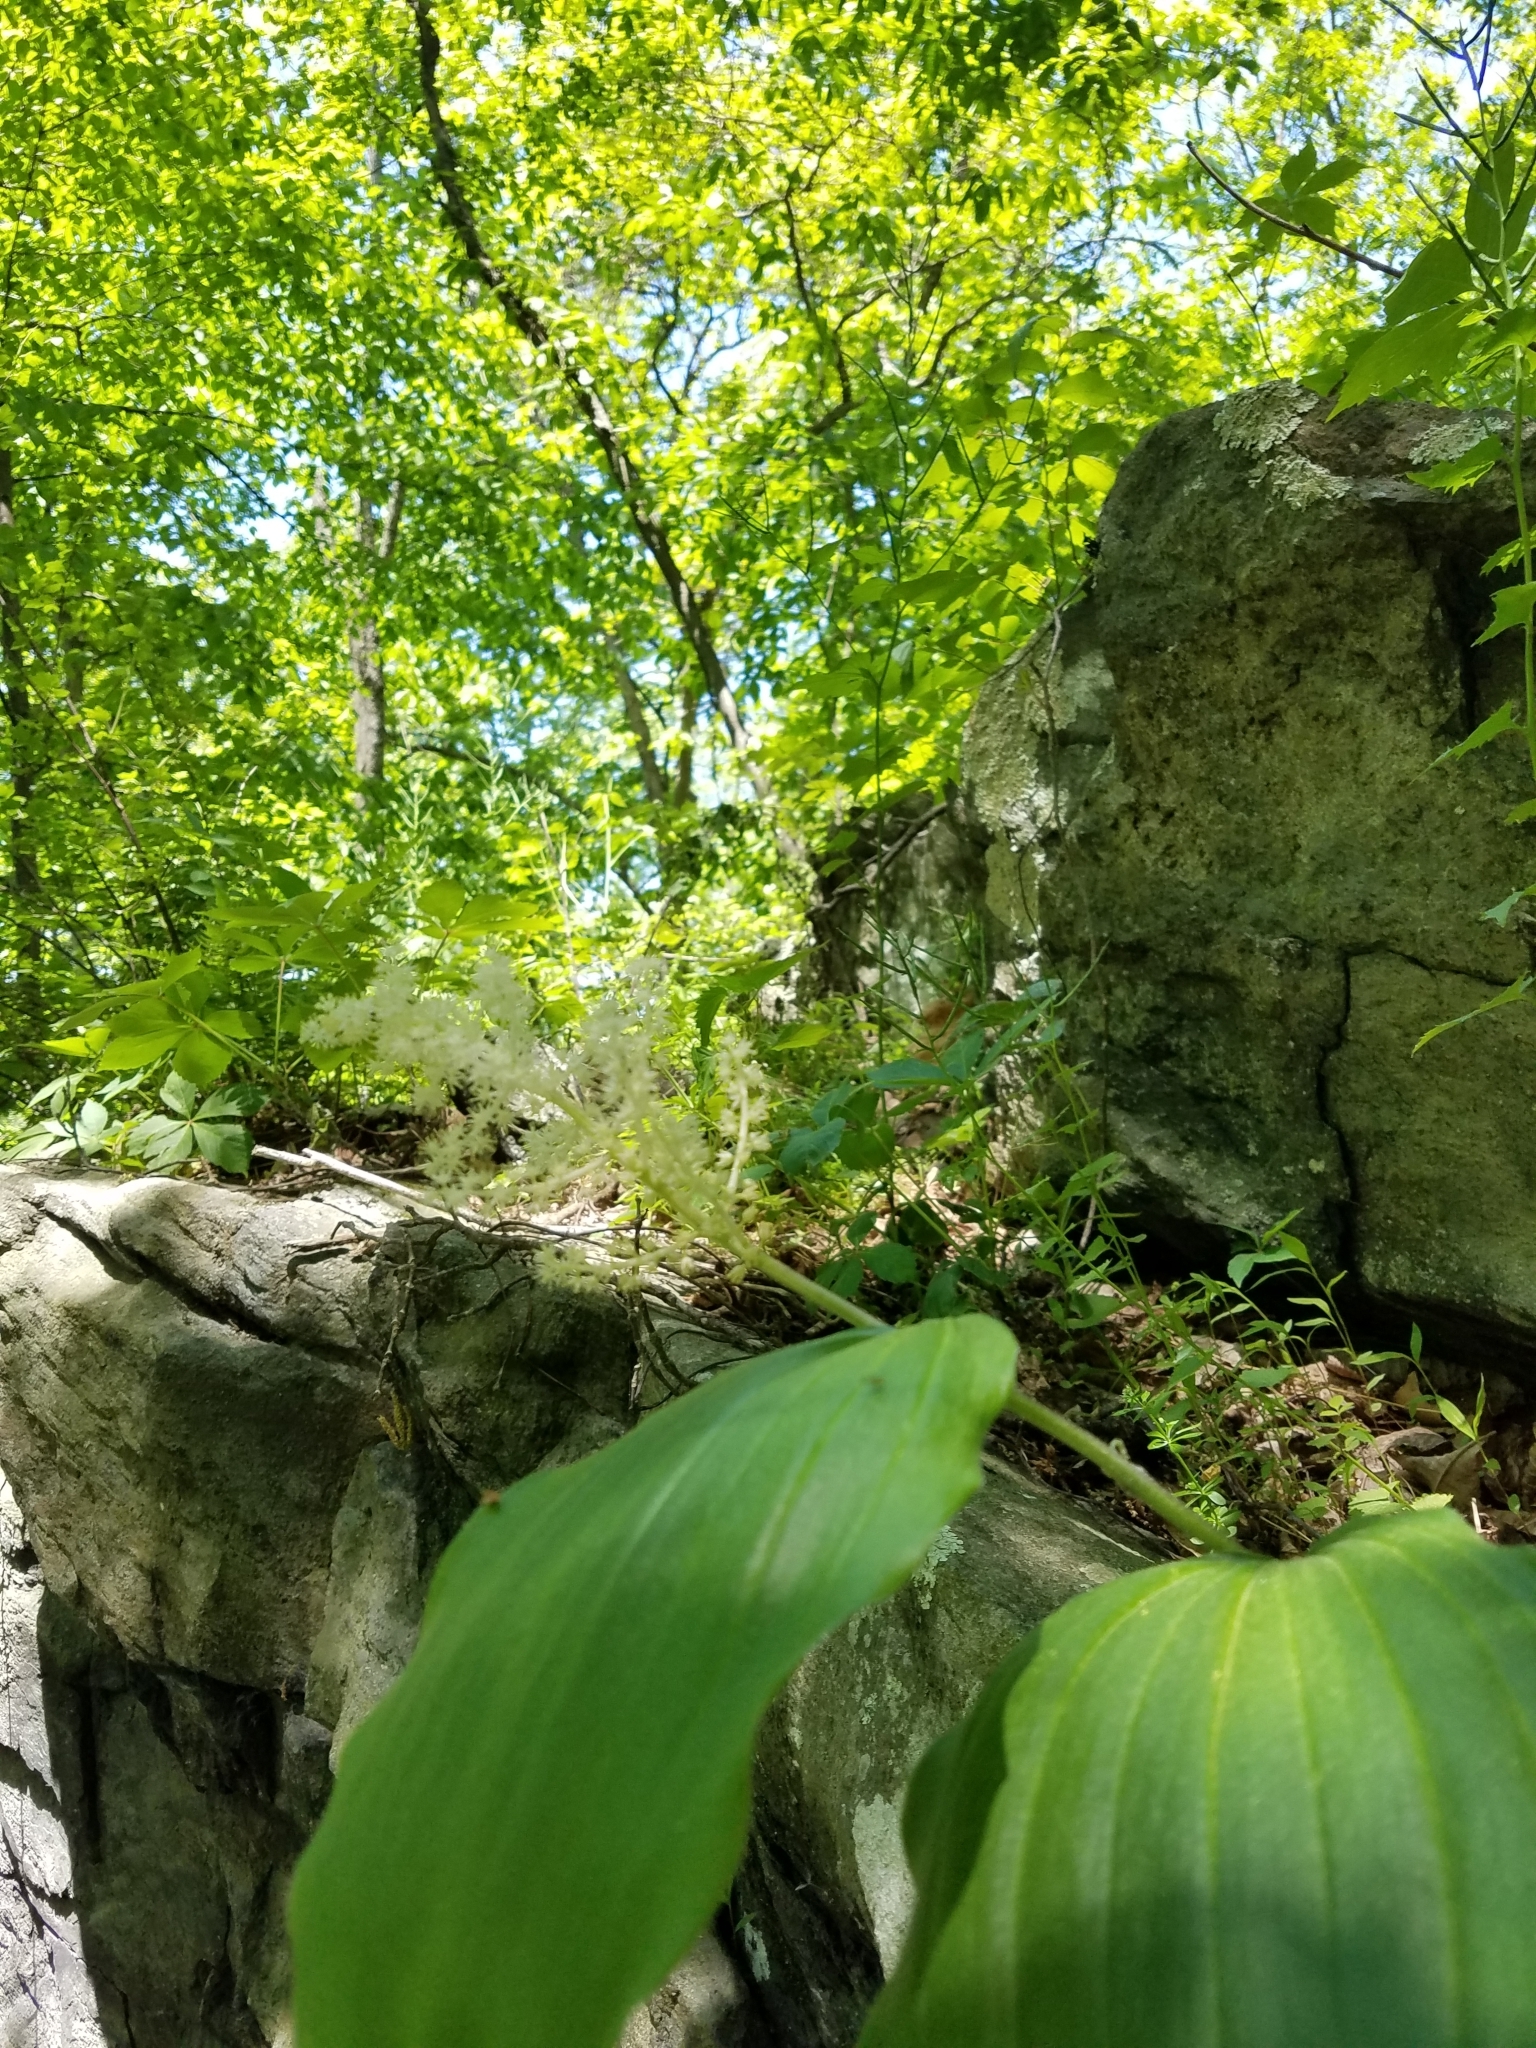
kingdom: Plantae
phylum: Tracheophyta
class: Liliopsida
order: Asparagales
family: Asparagaceae
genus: Maianthemum
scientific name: Maianthemum racemosum
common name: False spikenard
